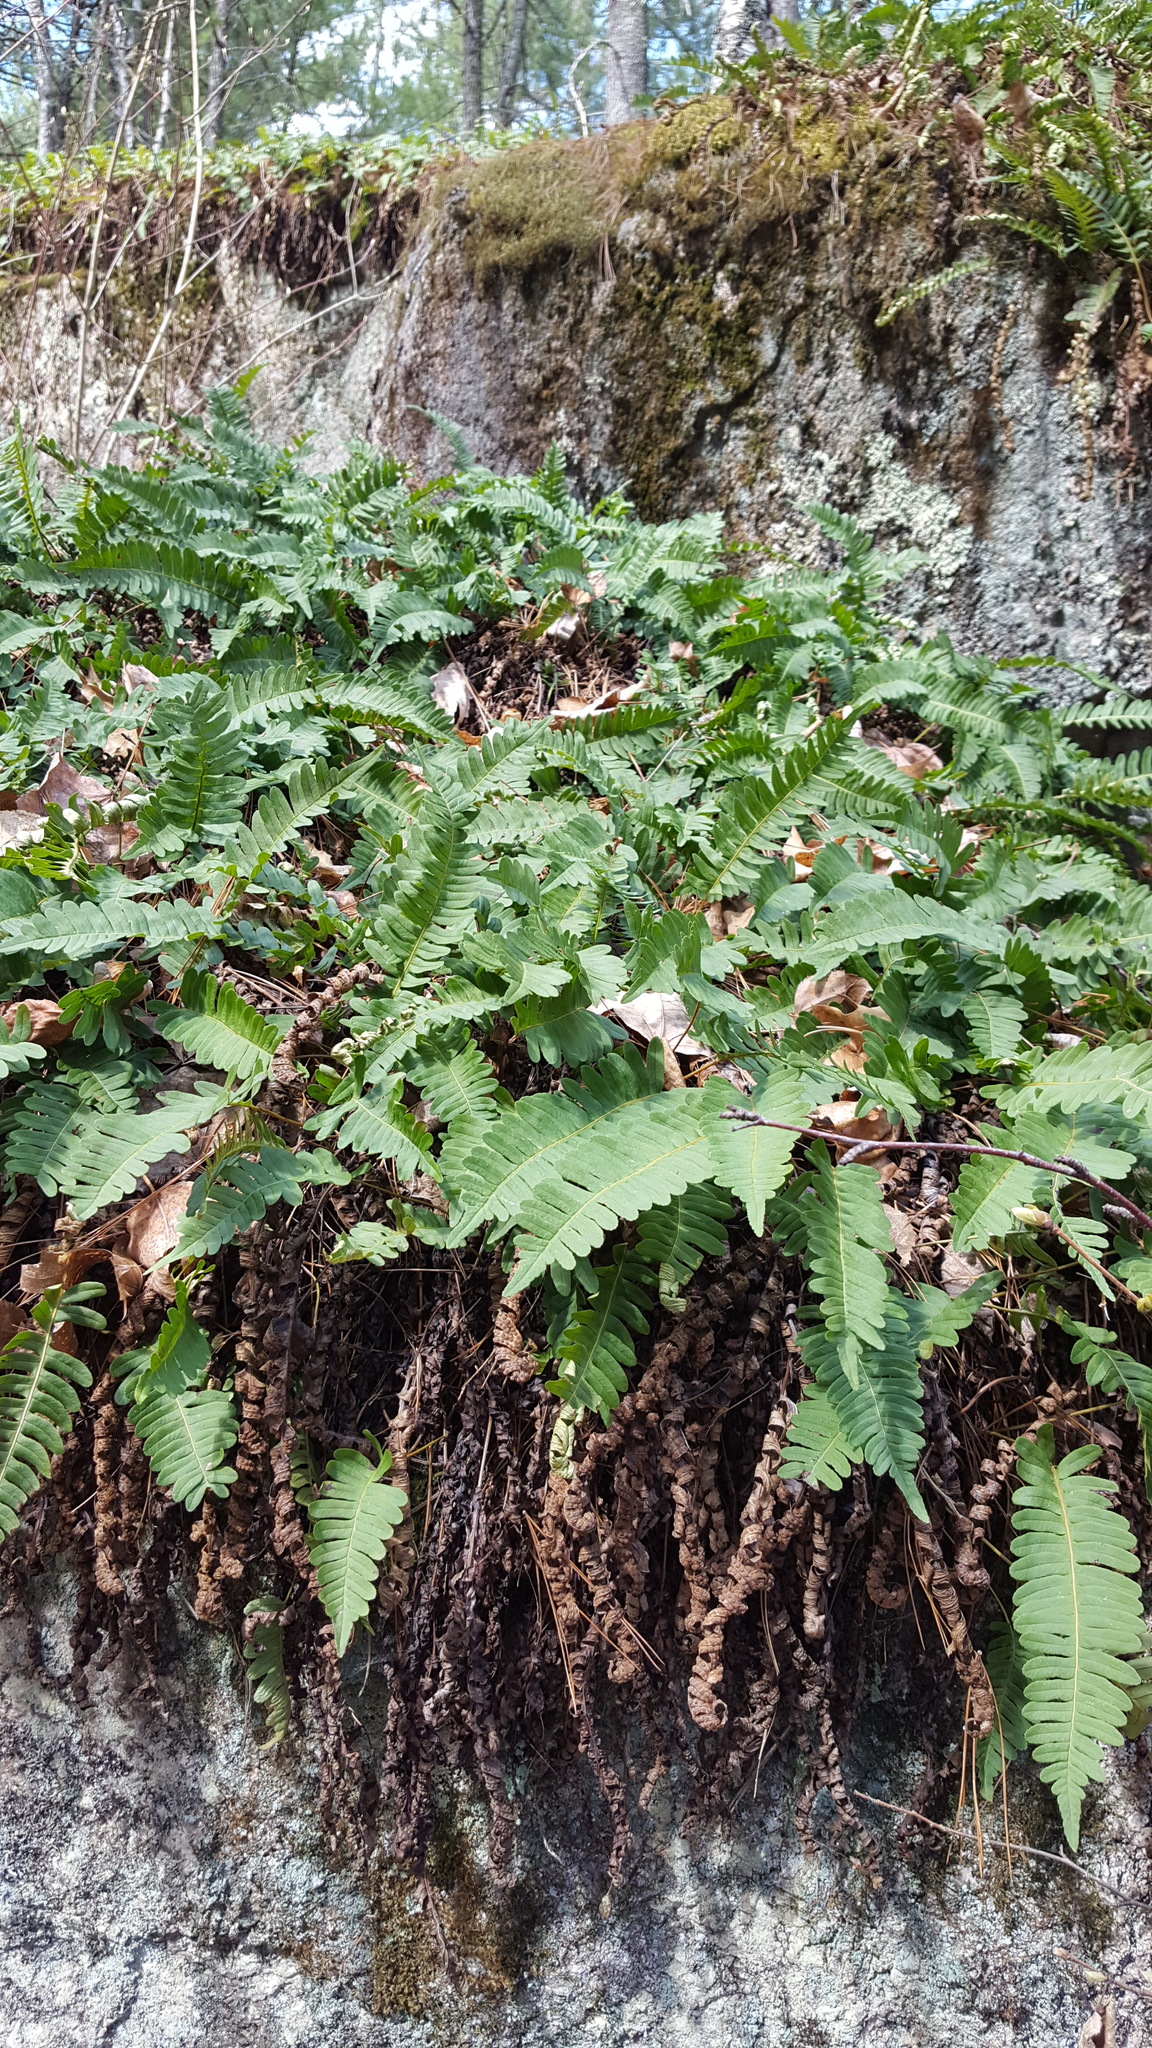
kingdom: Plantae
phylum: Tracheophyta
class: Polypodiopsida
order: Polypodiales
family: Polypodiaceae
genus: Polypodium
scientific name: Polypodium virginianum
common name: American wall fern
